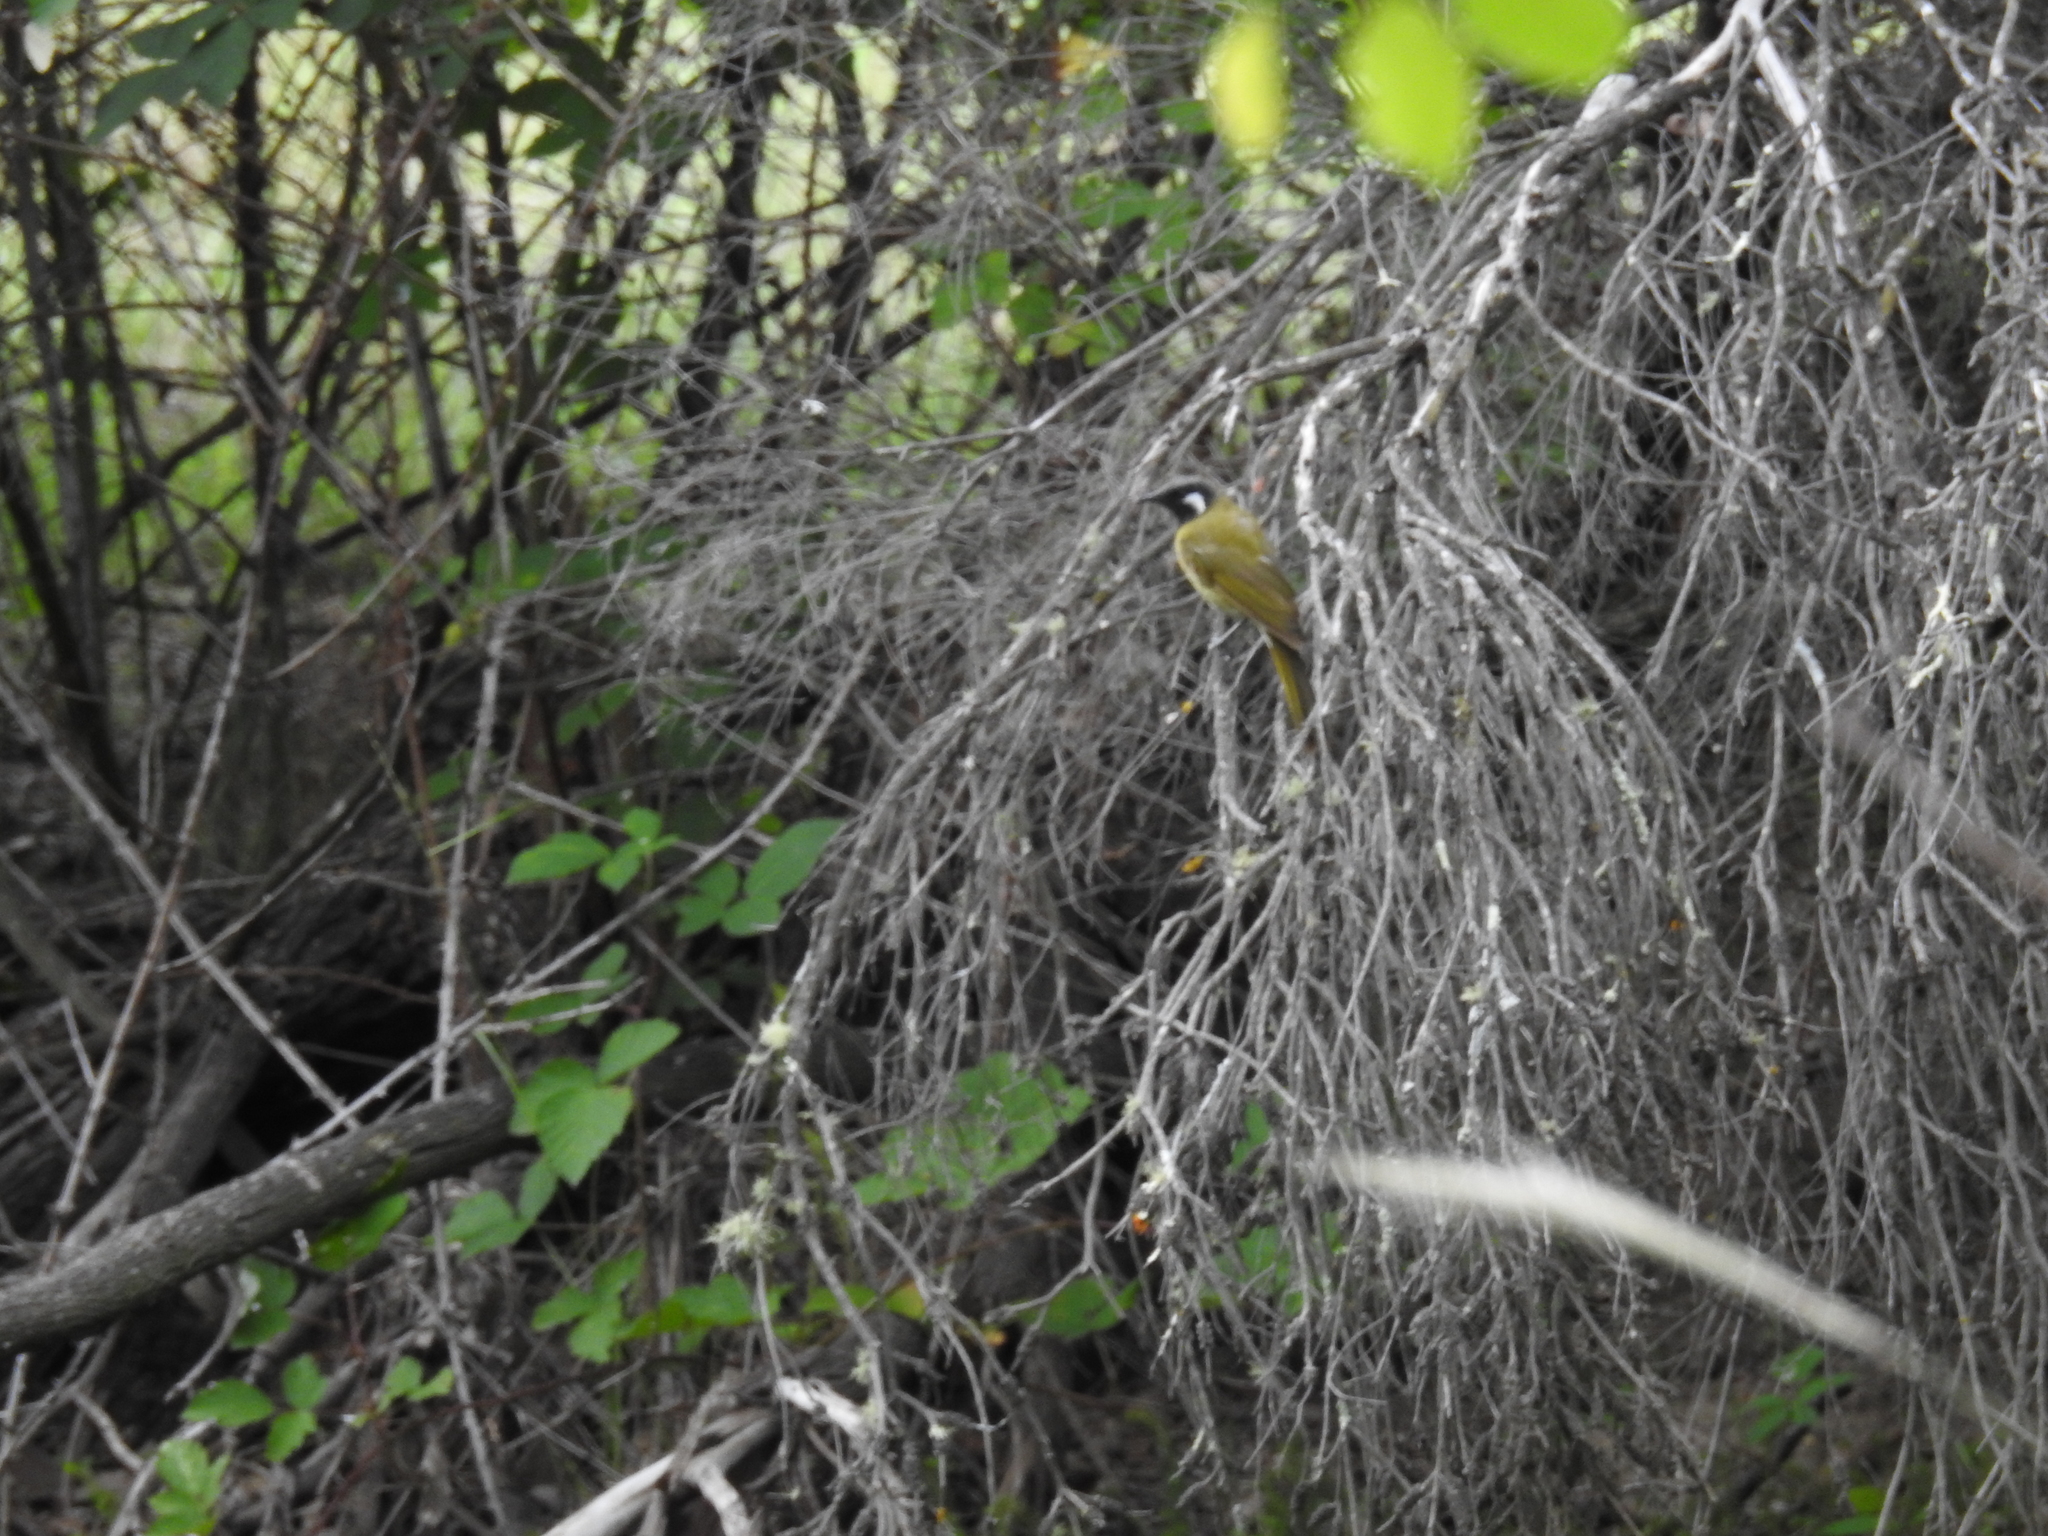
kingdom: Animalia
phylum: Chordata
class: Aves
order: Passeriformes
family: Meliphagidae
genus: Nesoptilotis
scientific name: Nesoptilotis leucotis
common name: White-eared honeyeater
